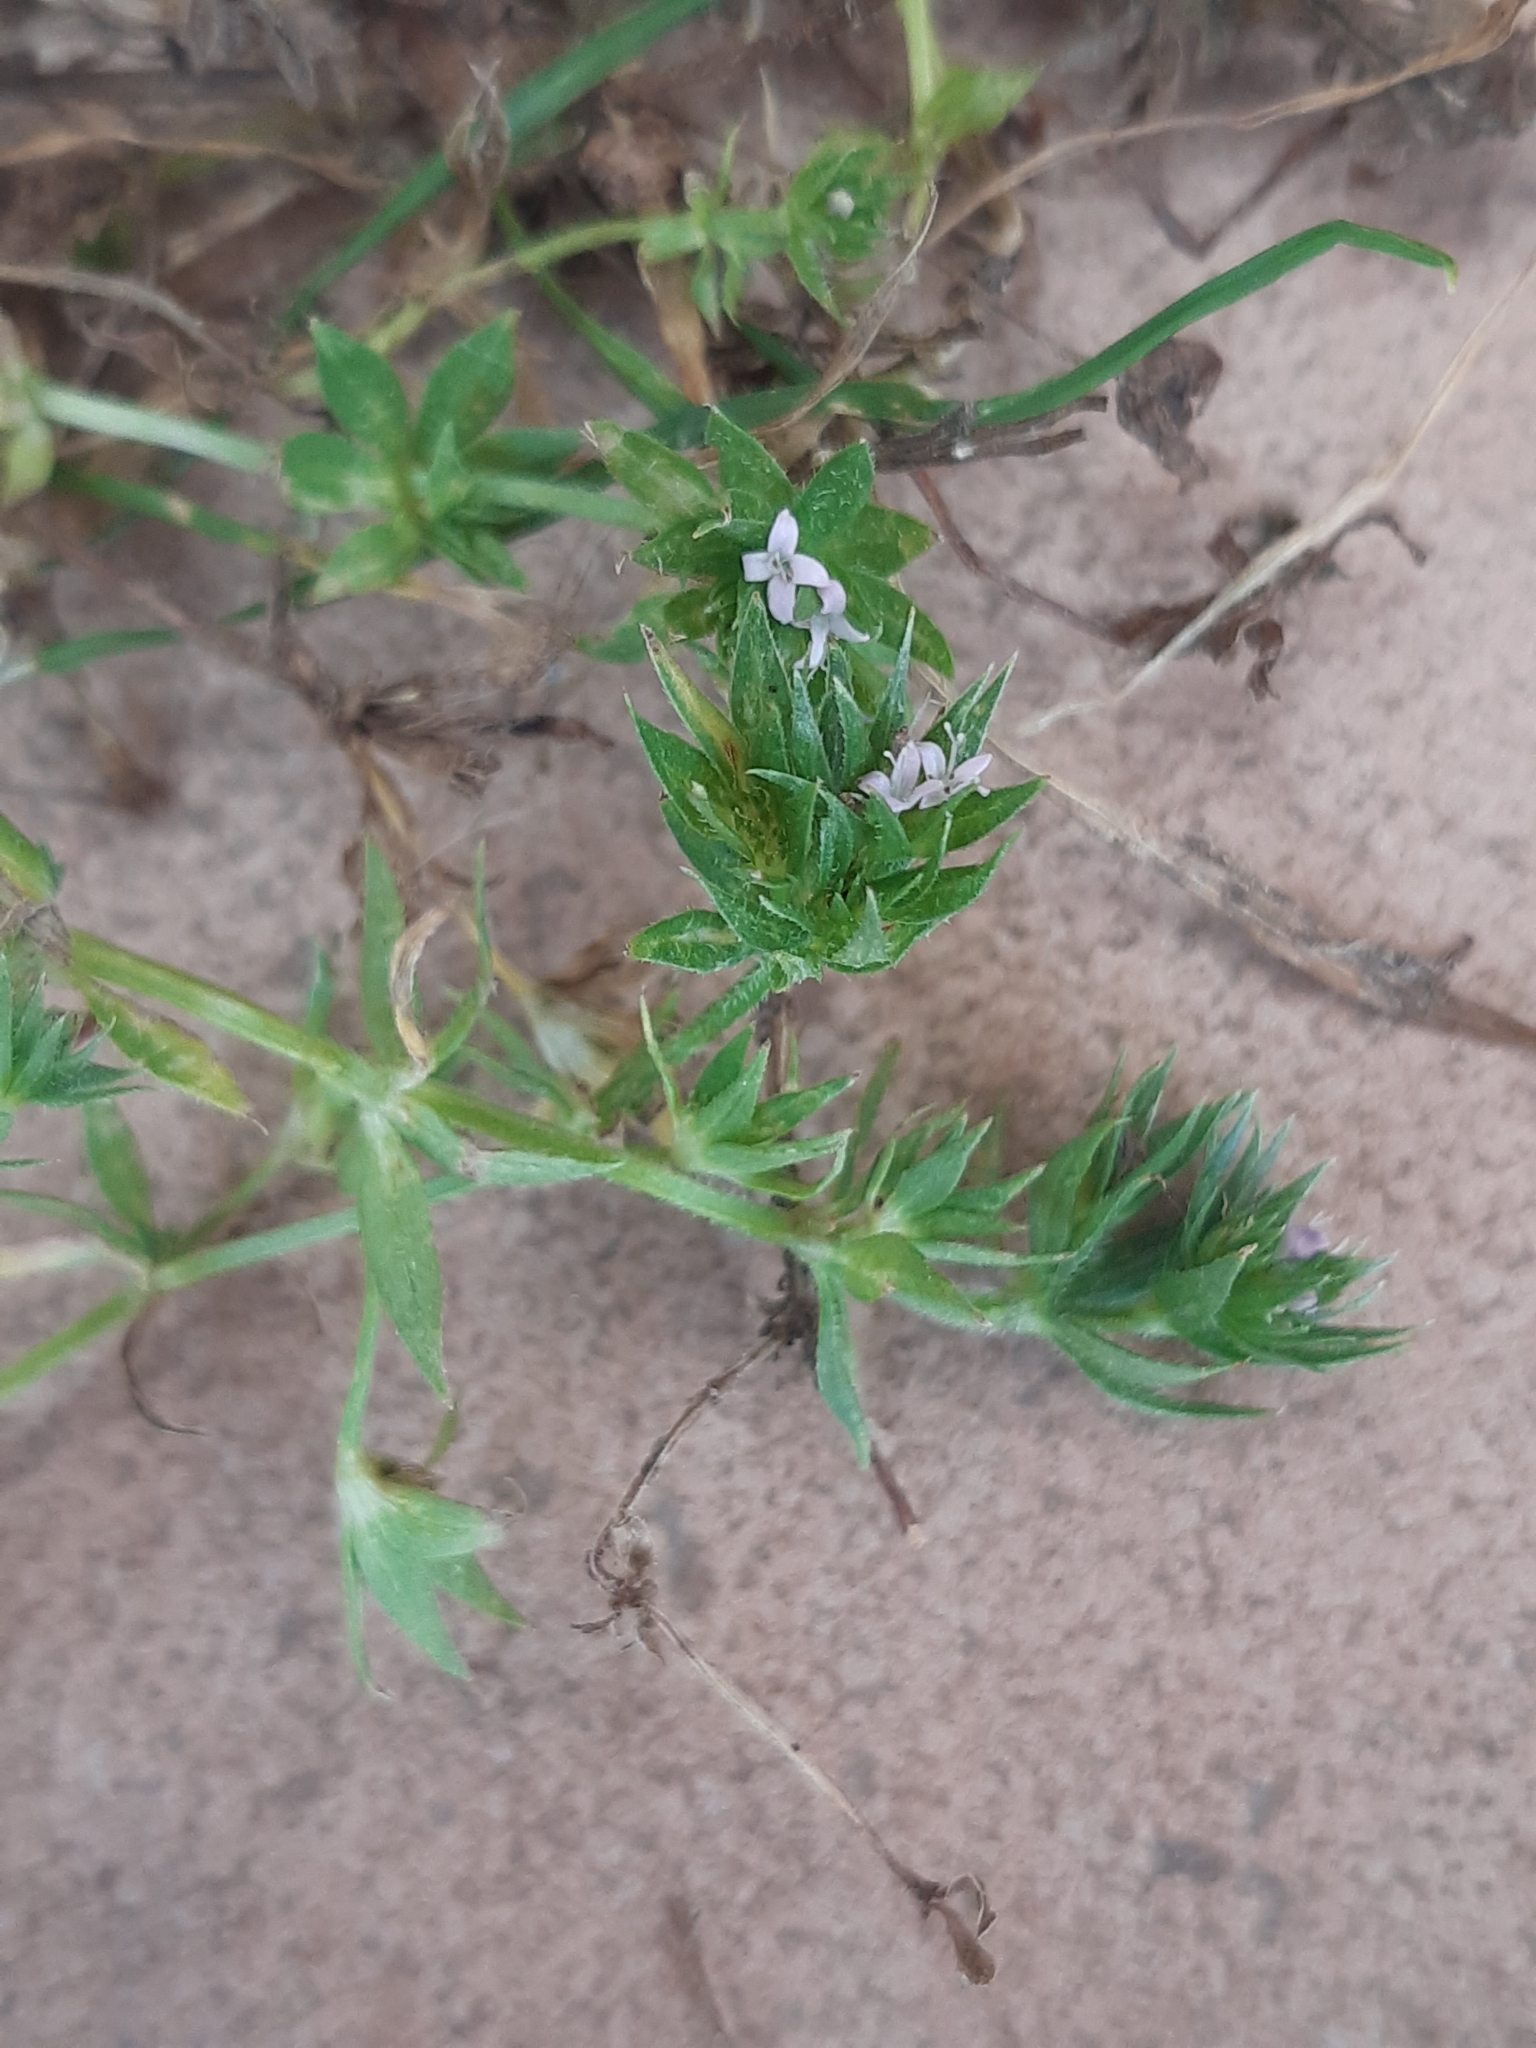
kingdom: Plantae
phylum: Tracheophyta
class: Magnoliopsida
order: Gentianales
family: Rubiaceae
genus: Sherardia
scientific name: Sherardia arvensis
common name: Field madder
